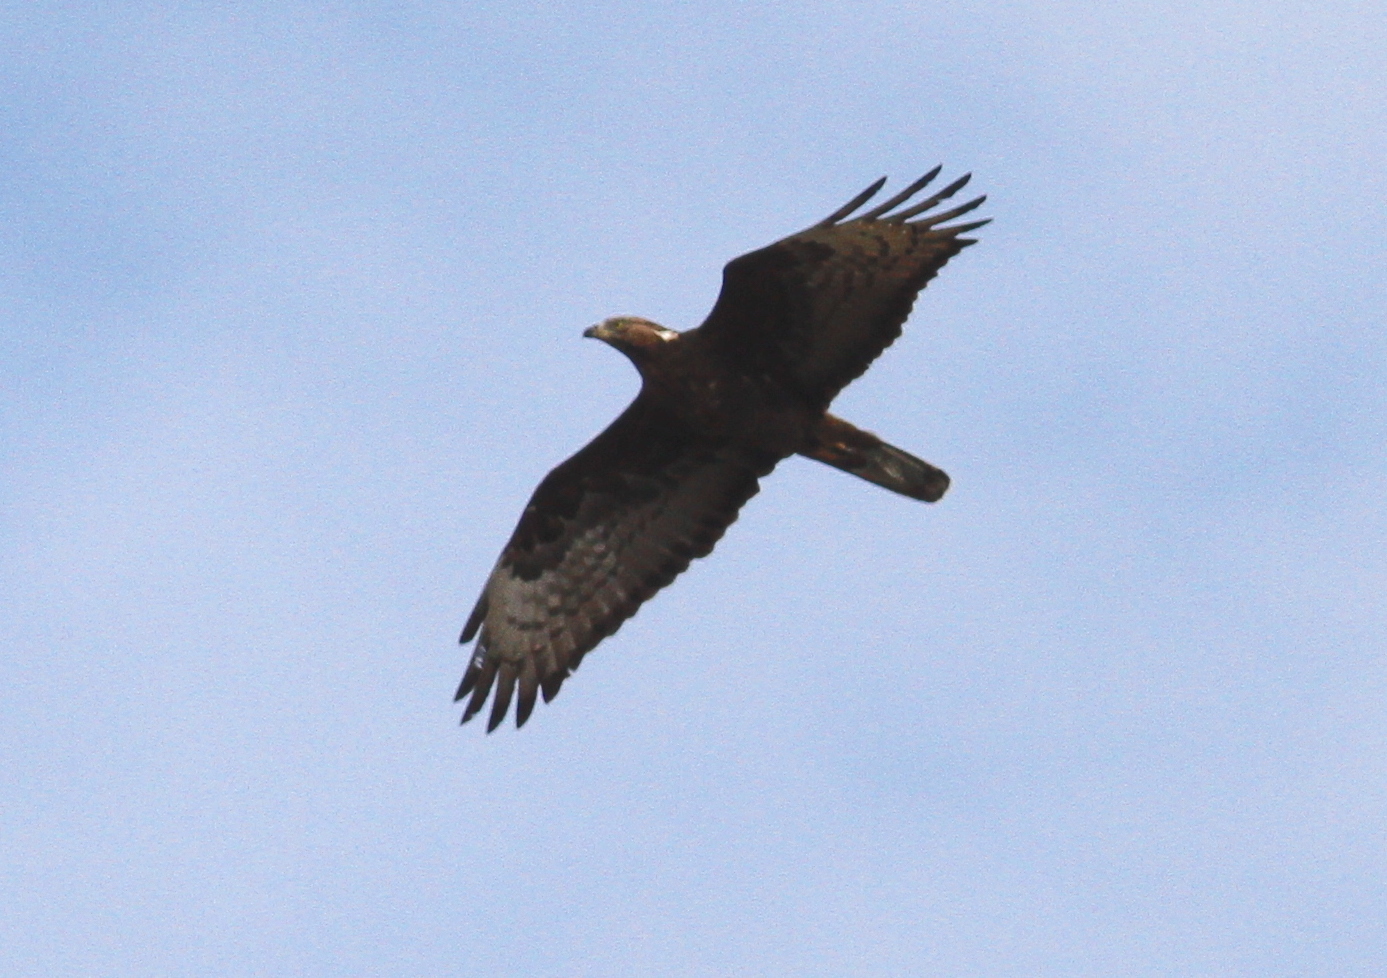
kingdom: Animalia
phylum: Chordata
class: Aves
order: Accipitriformes
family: Accipitridae
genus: Pernis
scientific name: Pernis apivorus
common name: European honey buzzard
